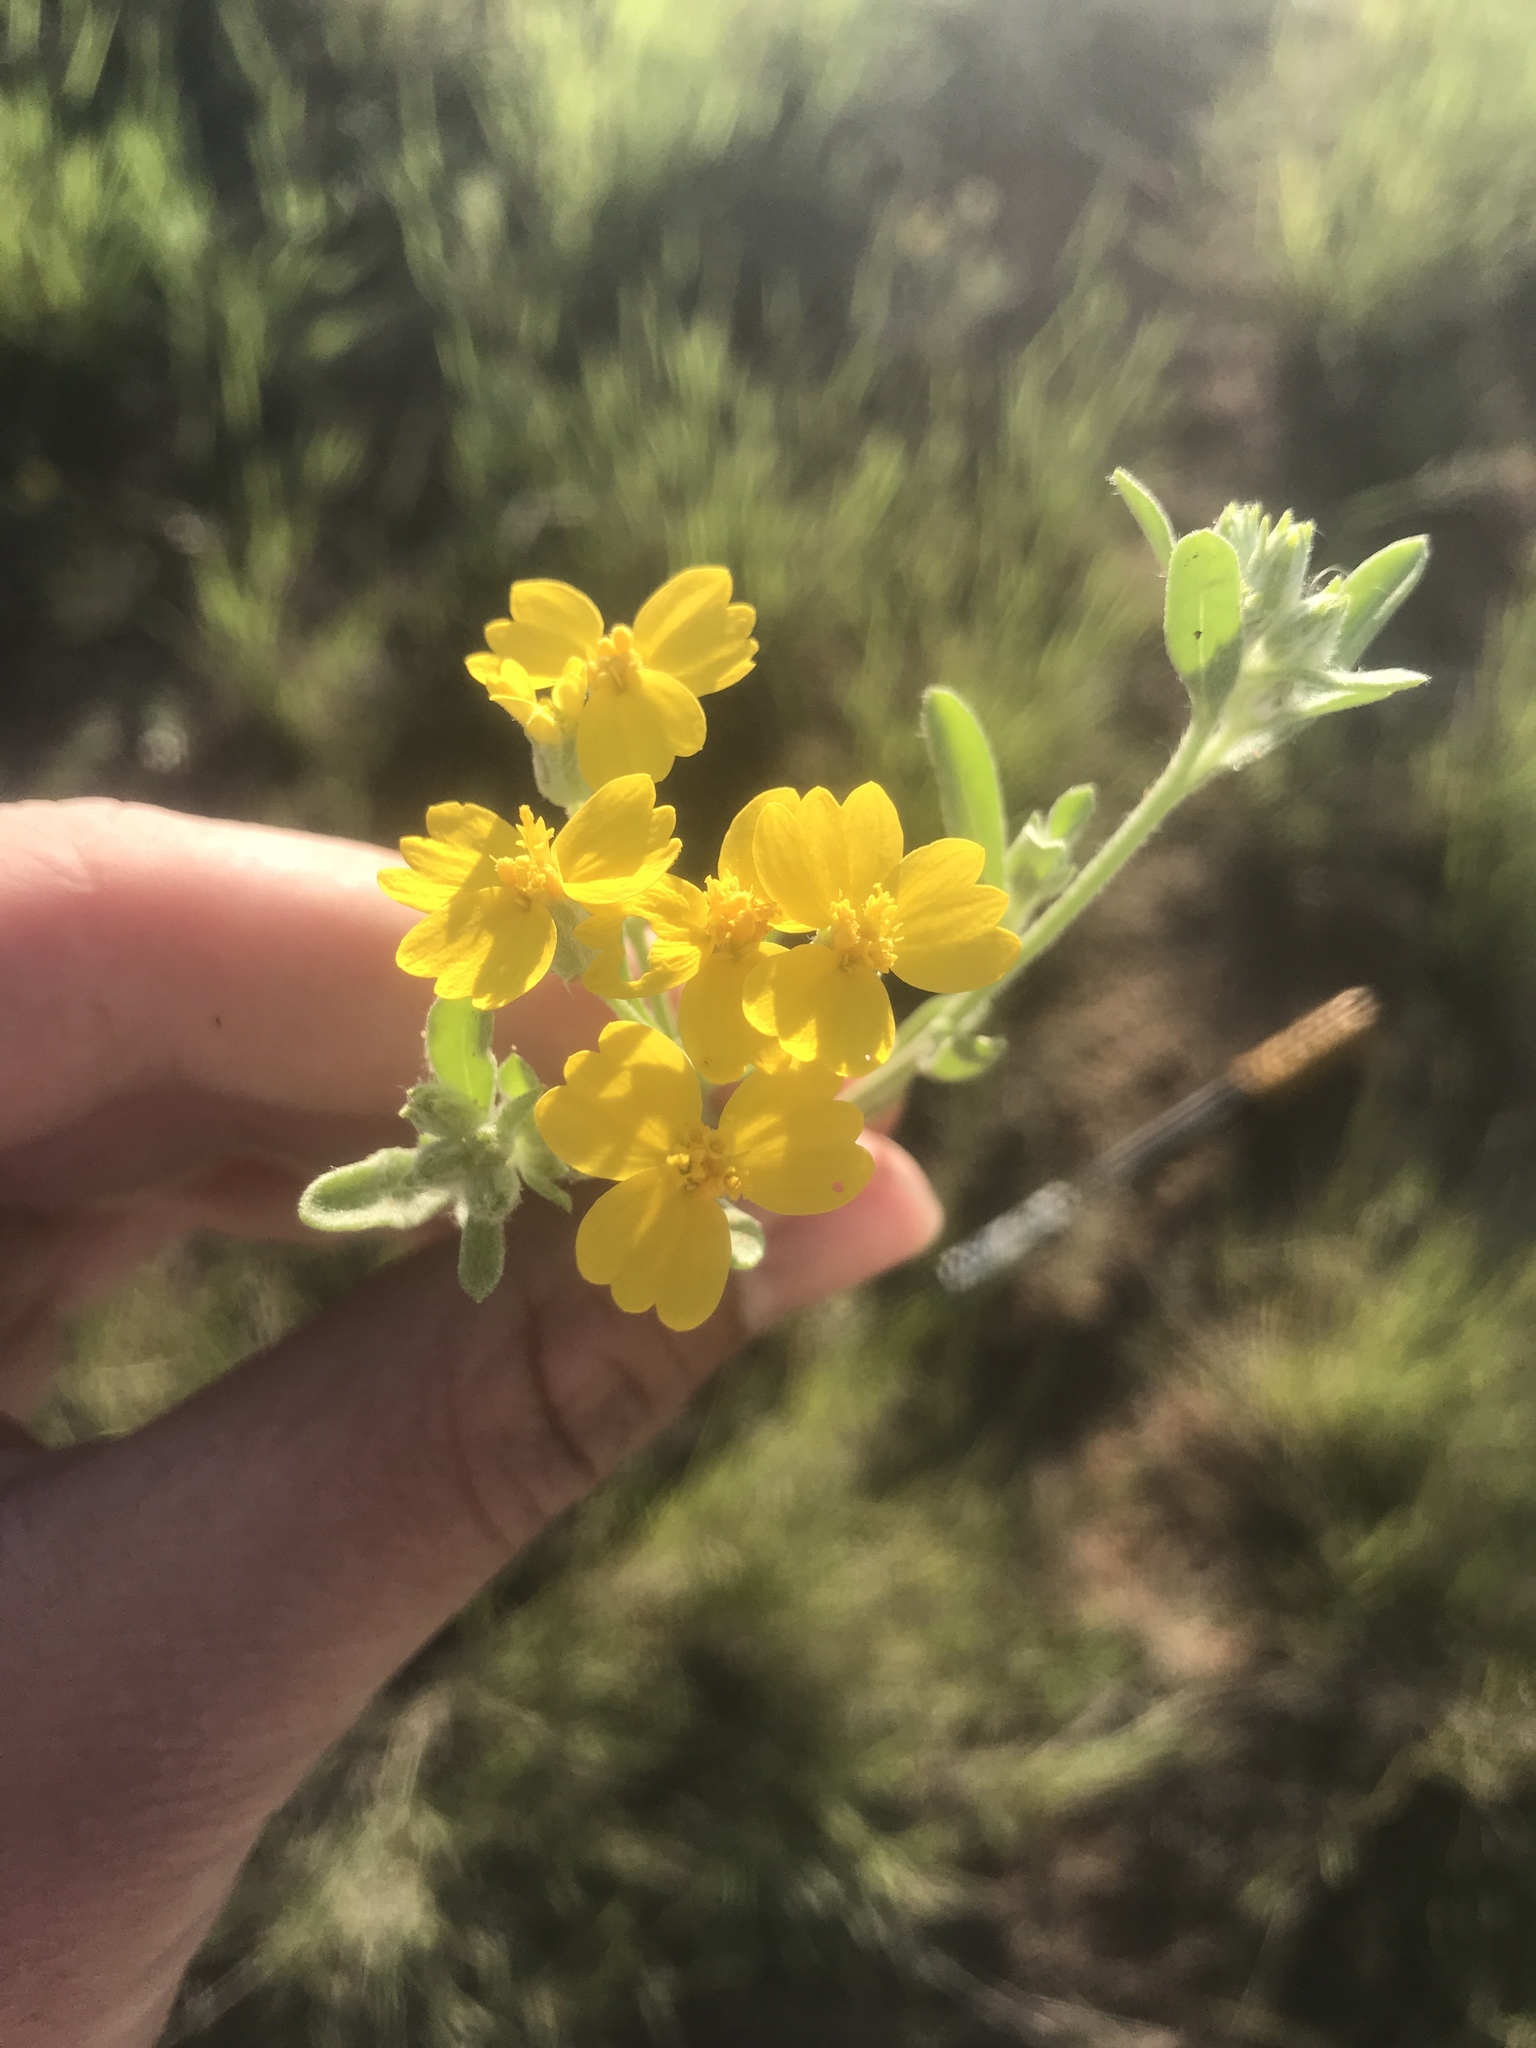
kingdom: Plantae
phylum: Tracheophyta
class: Magnoliopsida
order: Asterales
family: Asteraceae
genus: Psilostrophe
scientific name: Psilostrophe tagetina
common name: Marigold paper-flower
